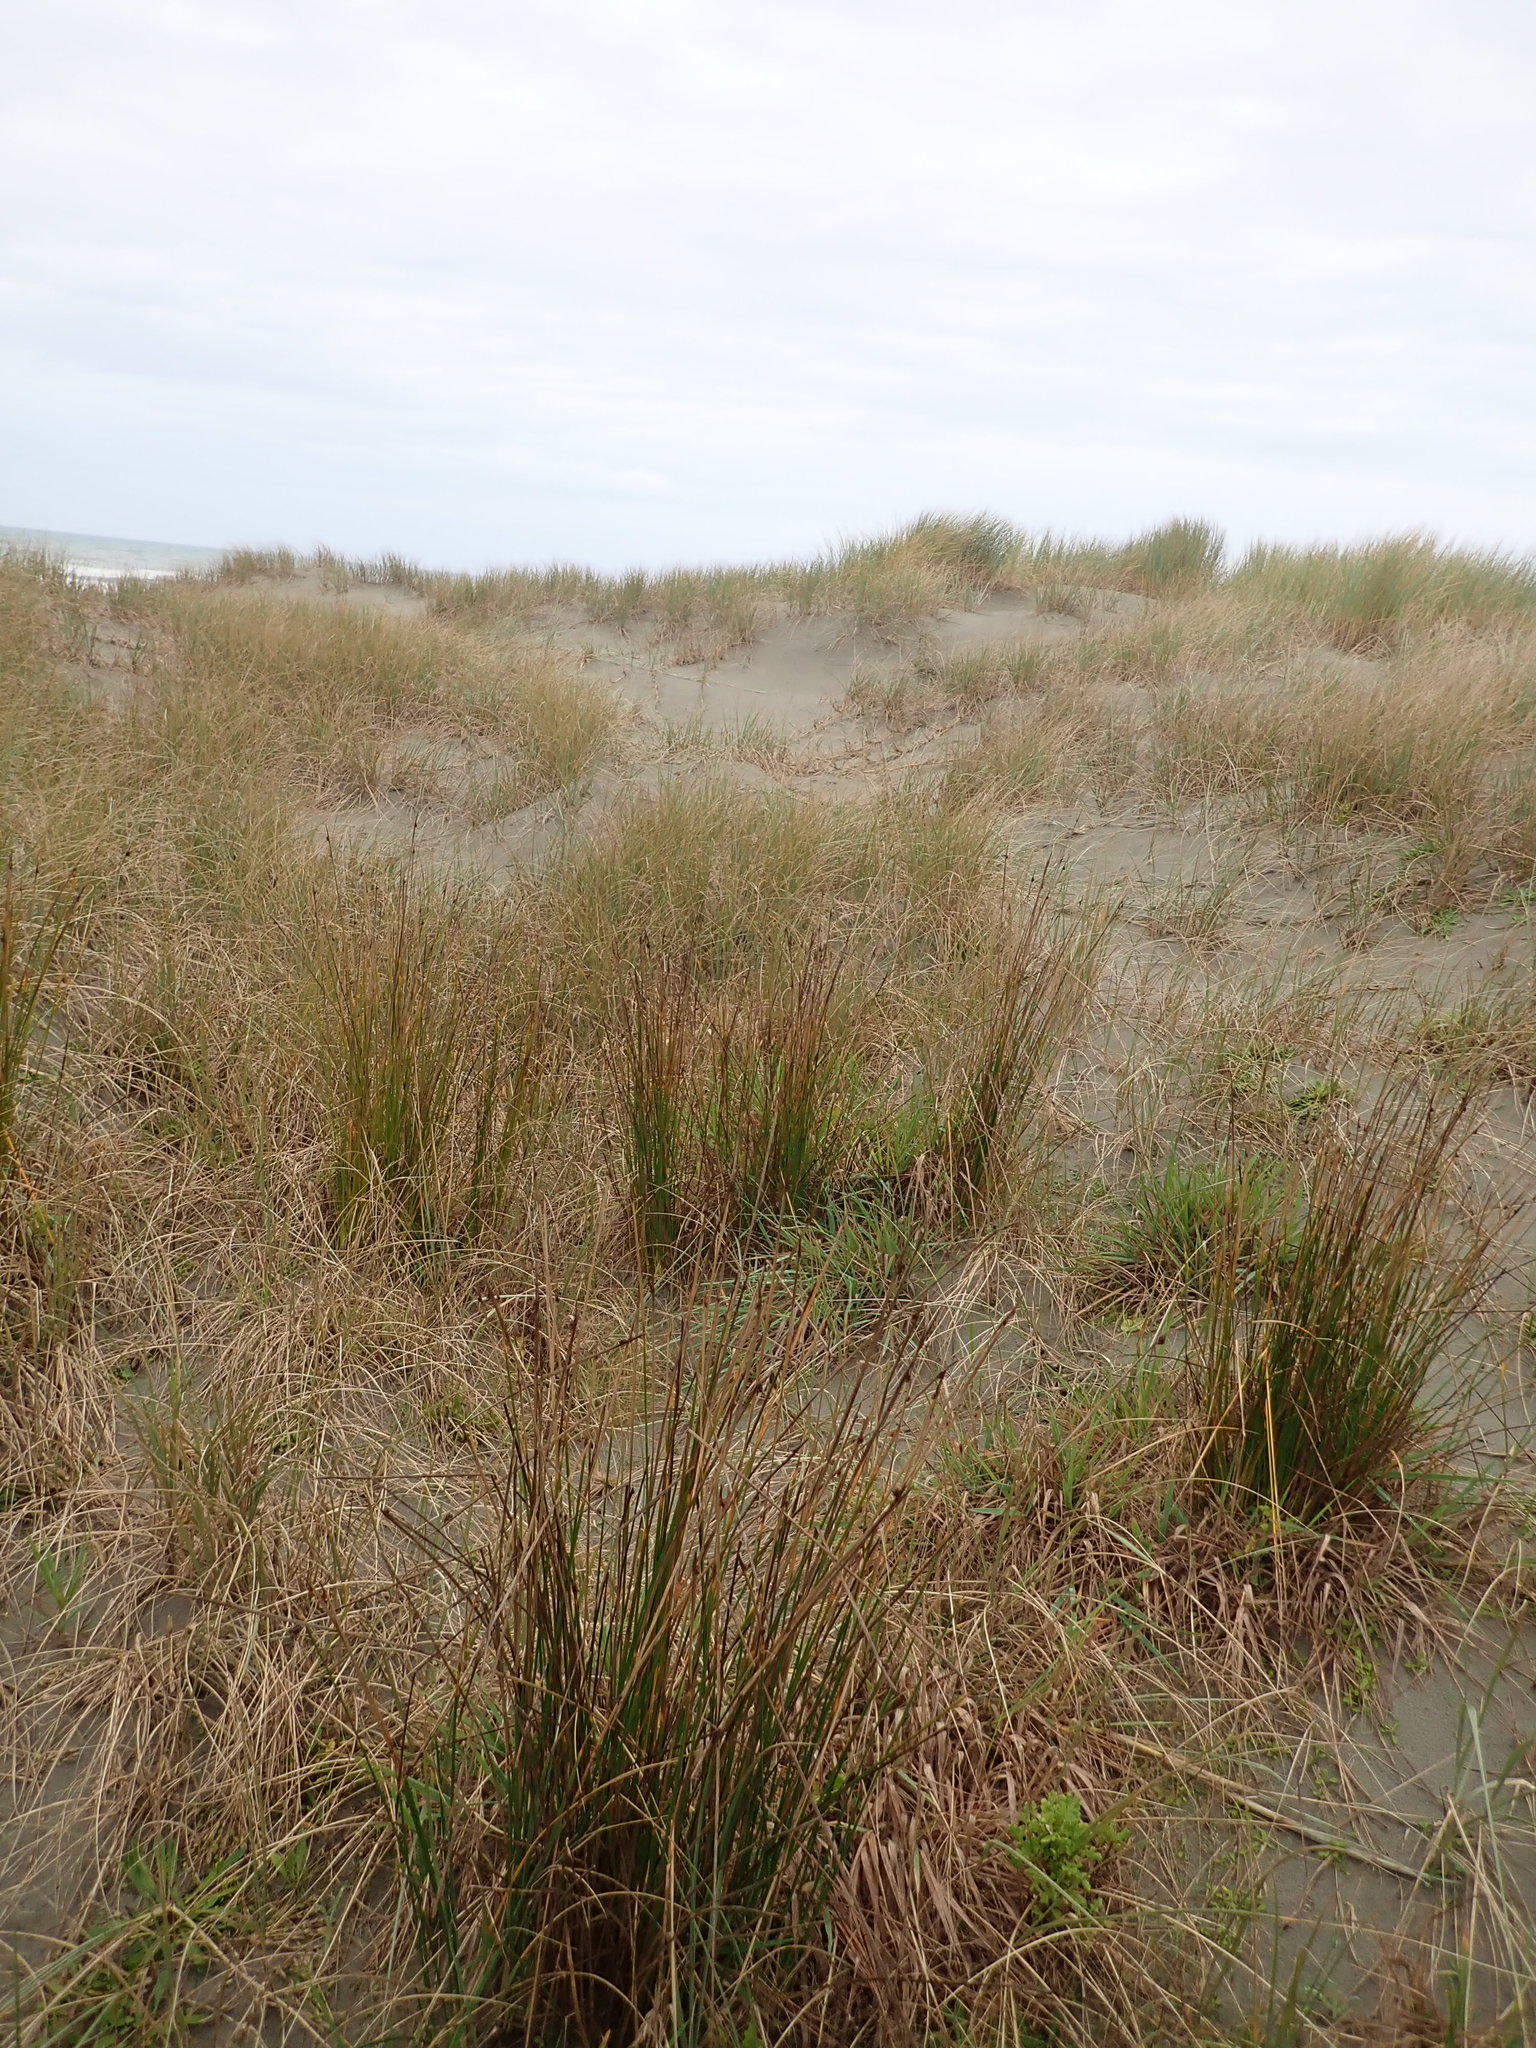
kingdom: Plantae
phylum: Tracheophyta
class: Liliopsida
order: Poales
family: Cyperaceae
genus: Ficinia
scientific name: Ficinia nodosa
